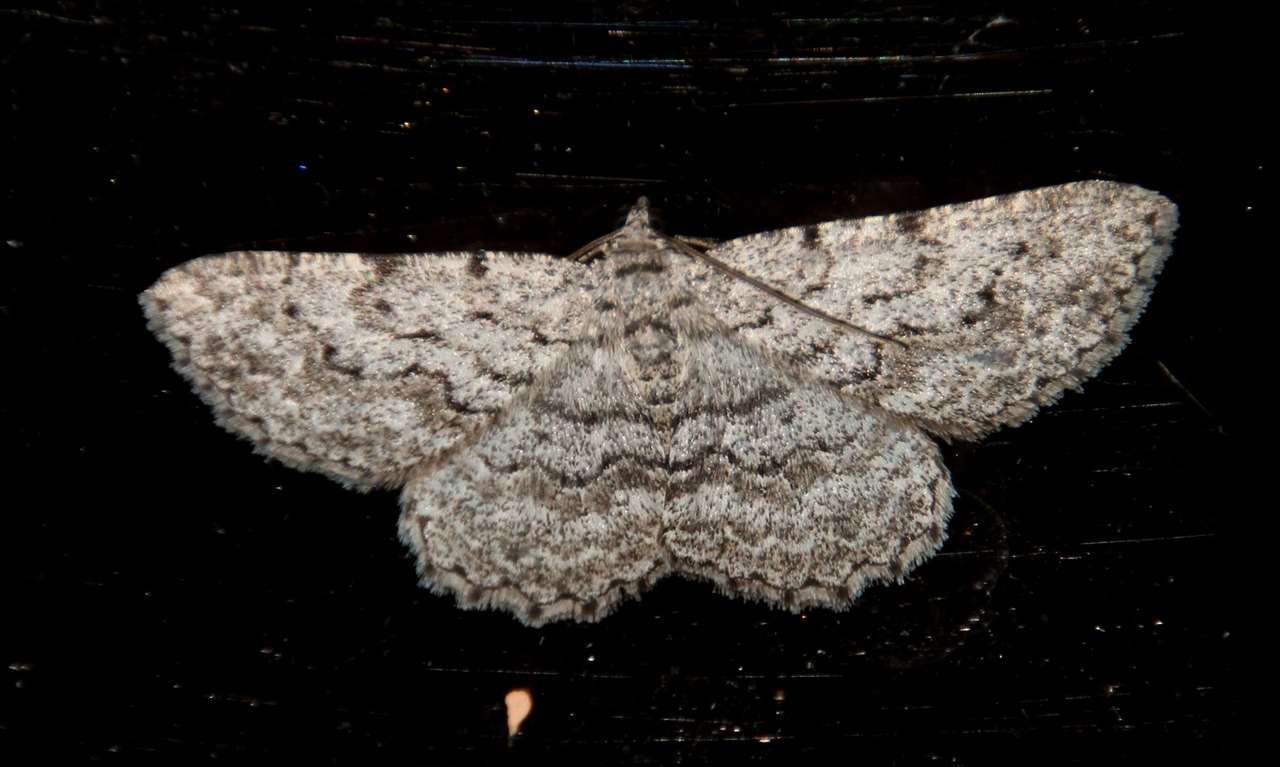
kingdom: Animalia
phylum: Arthropoda
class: Insecta
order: Lepidoptera
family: Geometridae
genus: Psilosticha
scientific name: Psilosticha absorpta
